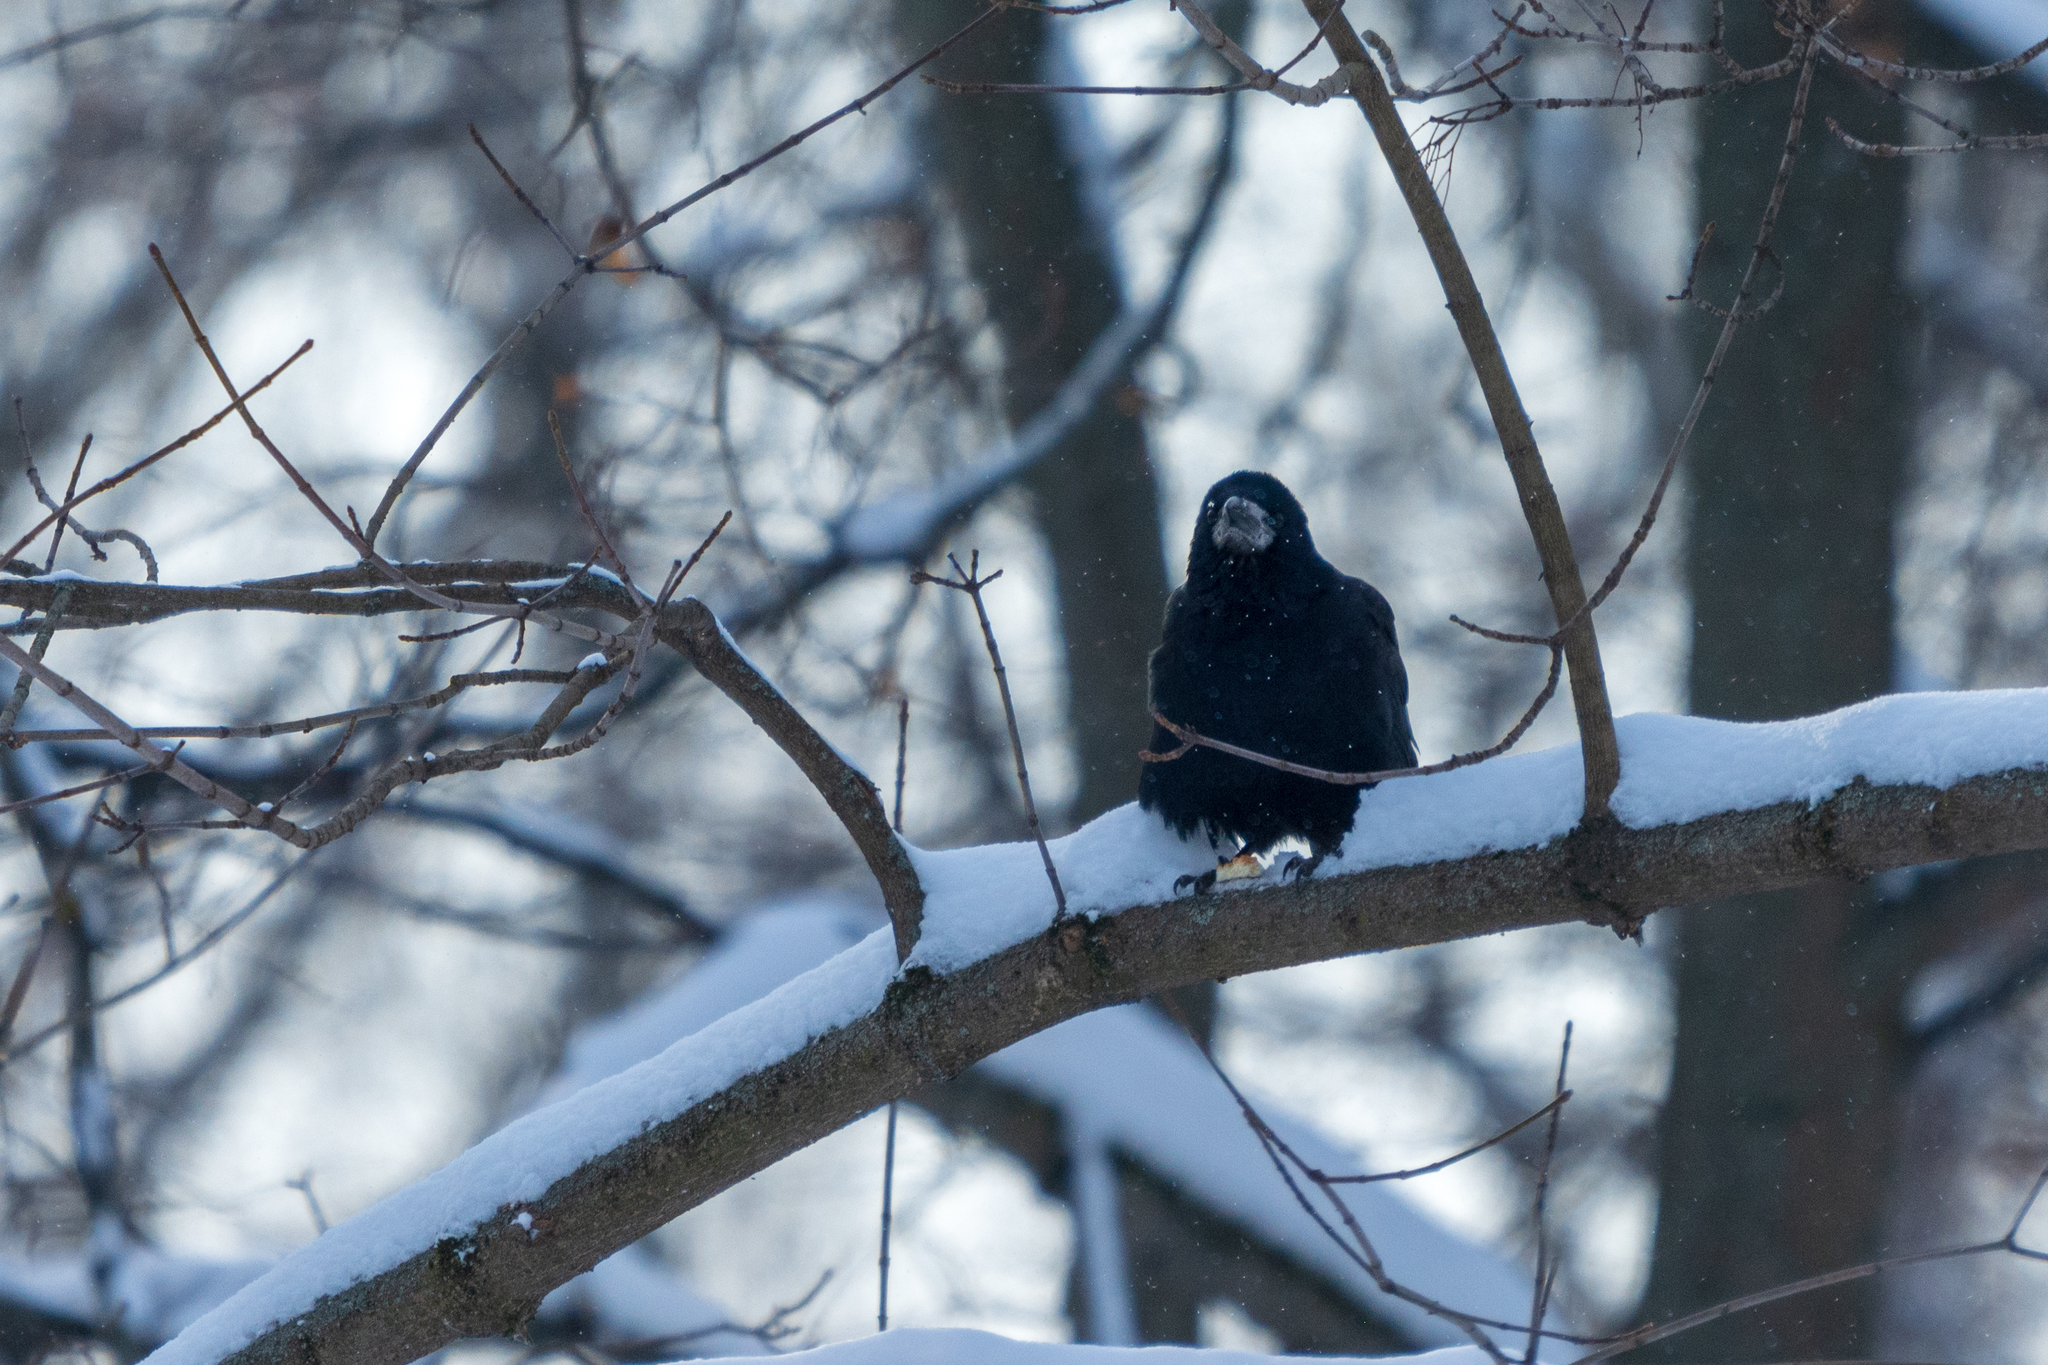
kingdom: Animalia
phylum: Chordata
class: Aves
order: Passeriformes
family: Corvidae
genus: Corvus
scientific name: Corvus frugilegus
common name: Rook
